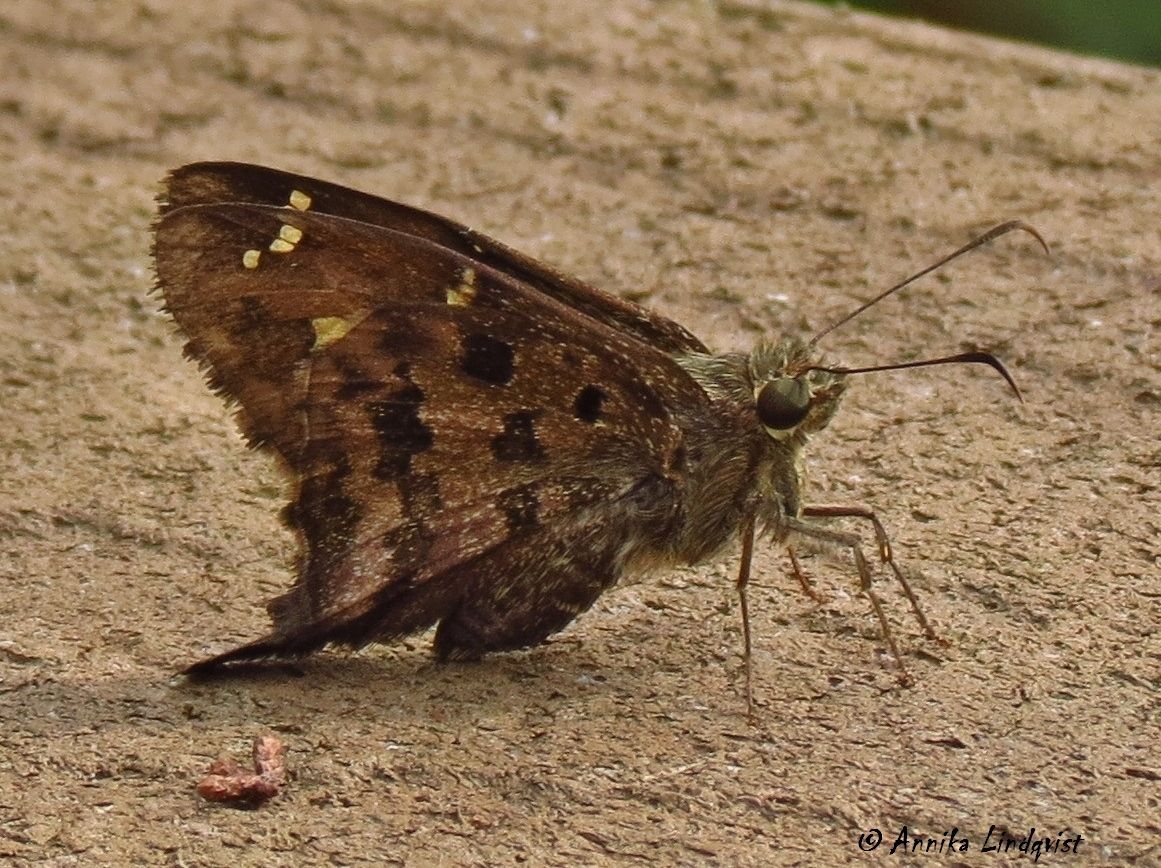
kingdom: Animalia
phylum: Arthropoda
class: Insecta
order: Lepidoptera
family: Hesperiidae
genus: Thorybes
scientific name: Thorybes
